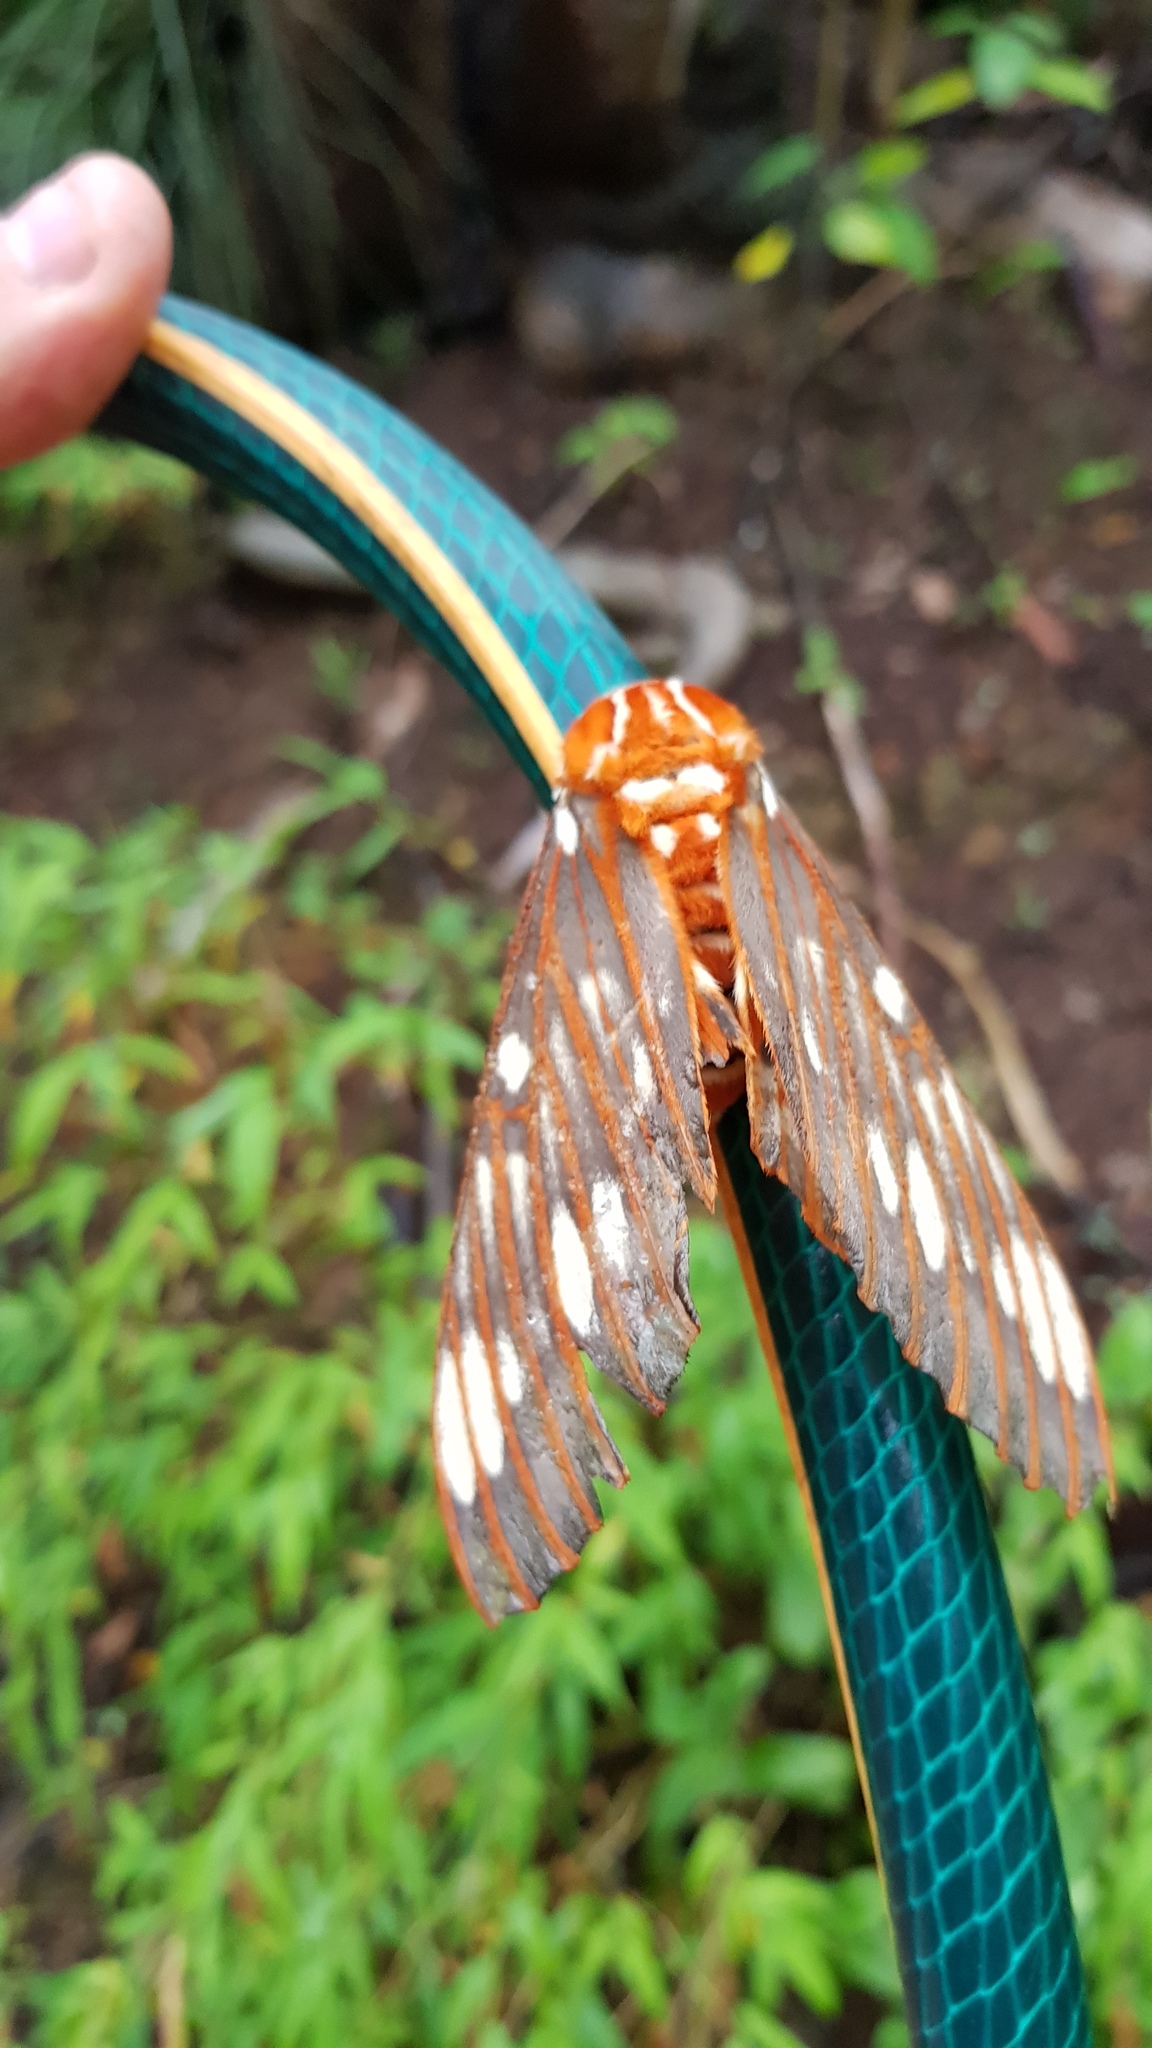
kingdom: Animalia
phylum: Arthropoda
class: Insecta
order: Lepidoptera
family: Saturniidae
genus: Citheronia
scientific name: Citheronia azteca
